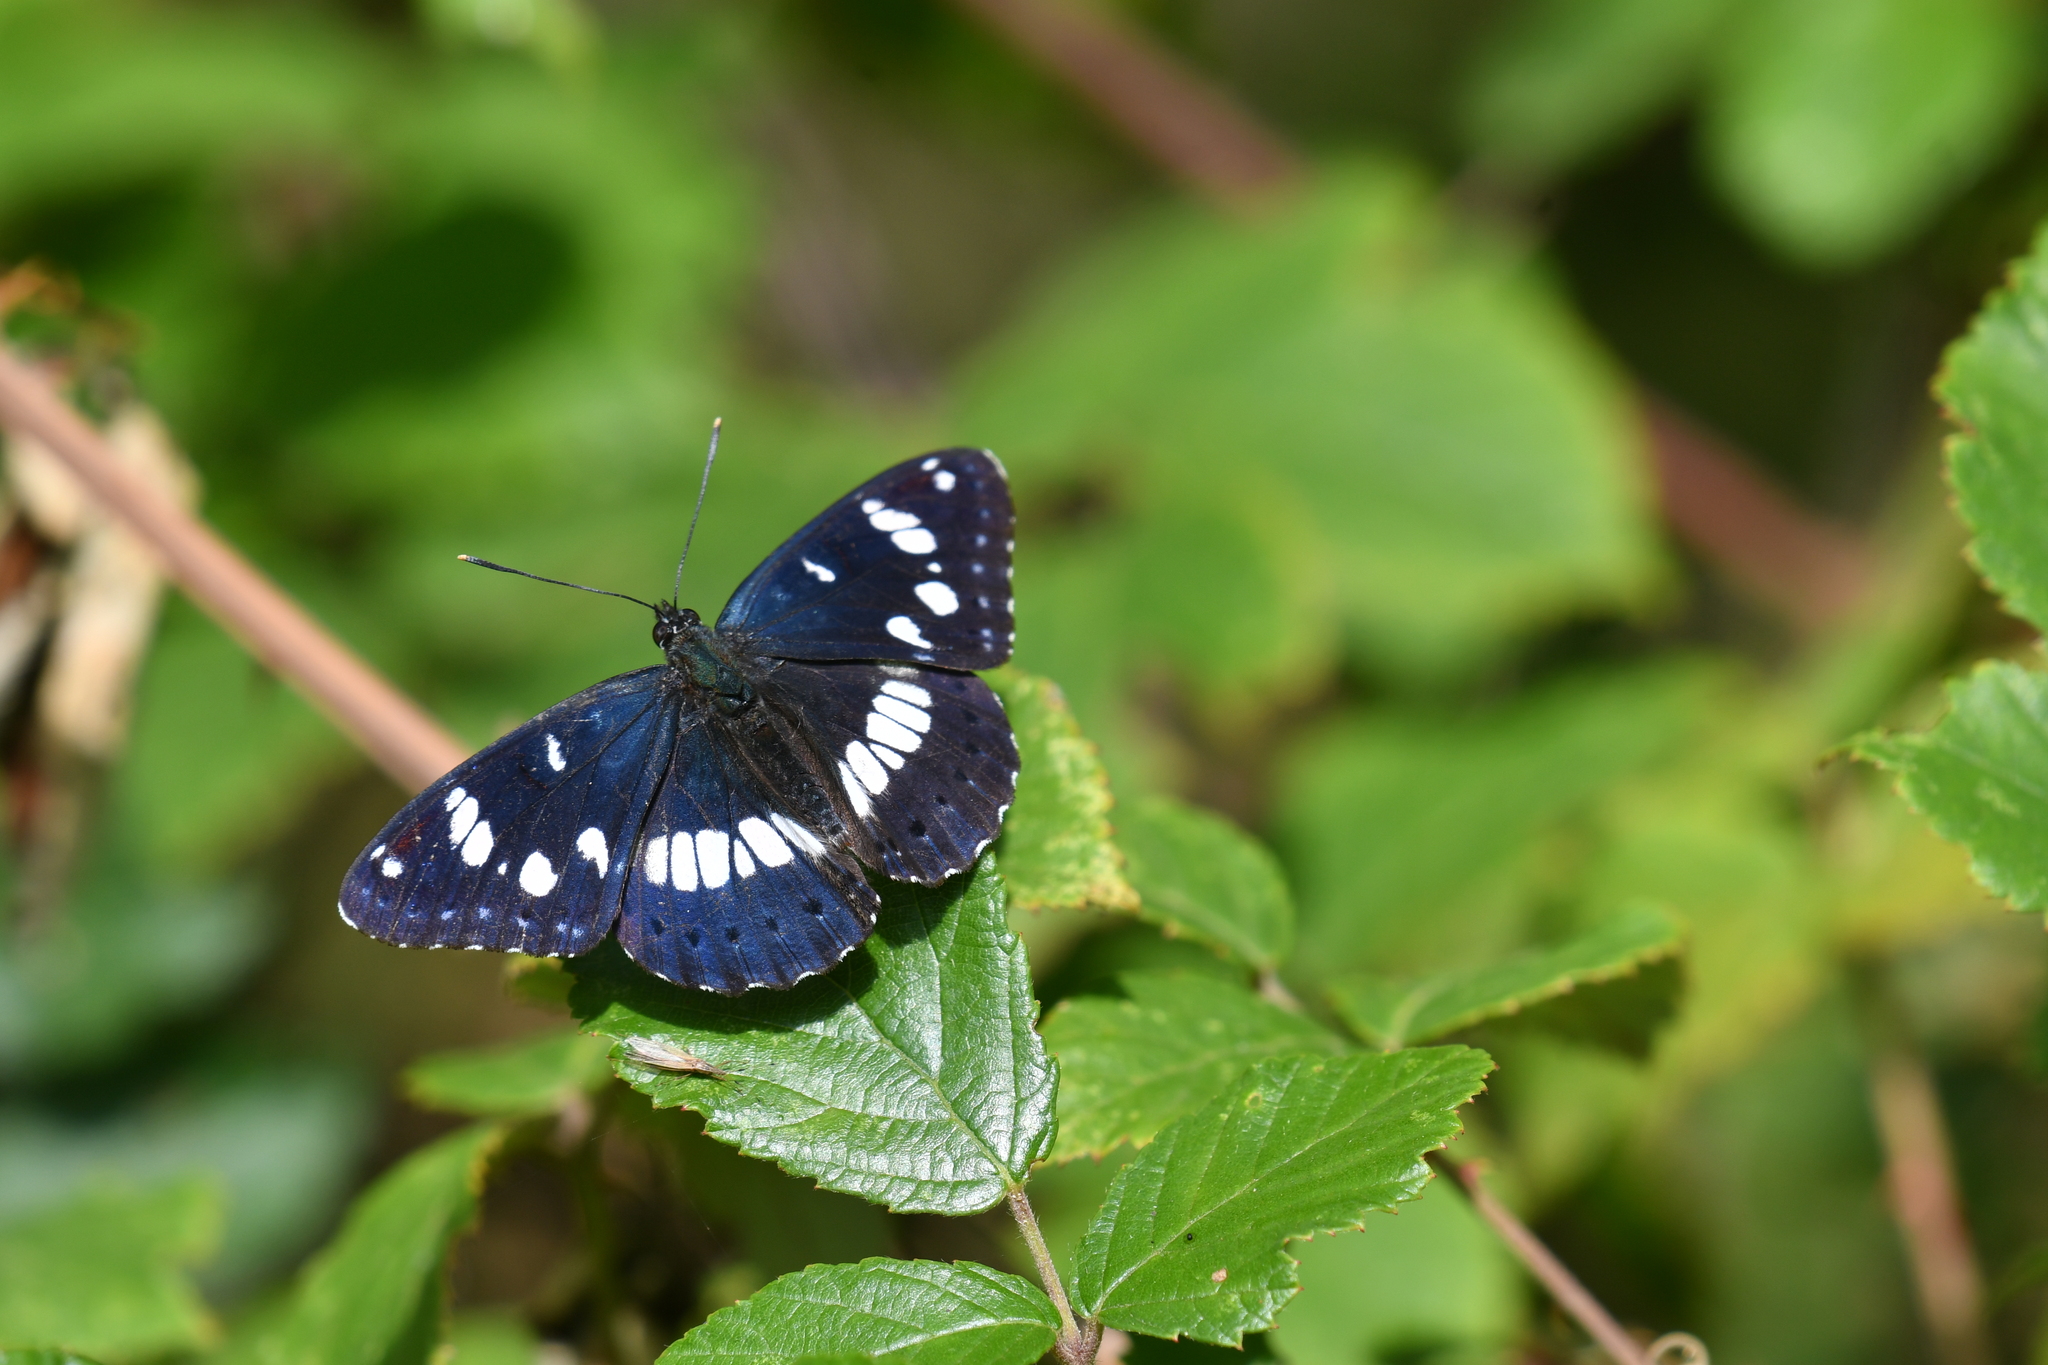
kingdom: Animalia
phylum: Arthropoda
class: Insecta
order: Lepidoptera
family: Nymphalidae
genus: Limenitis
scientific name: Limenitis reducta
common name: Southern white admiral
